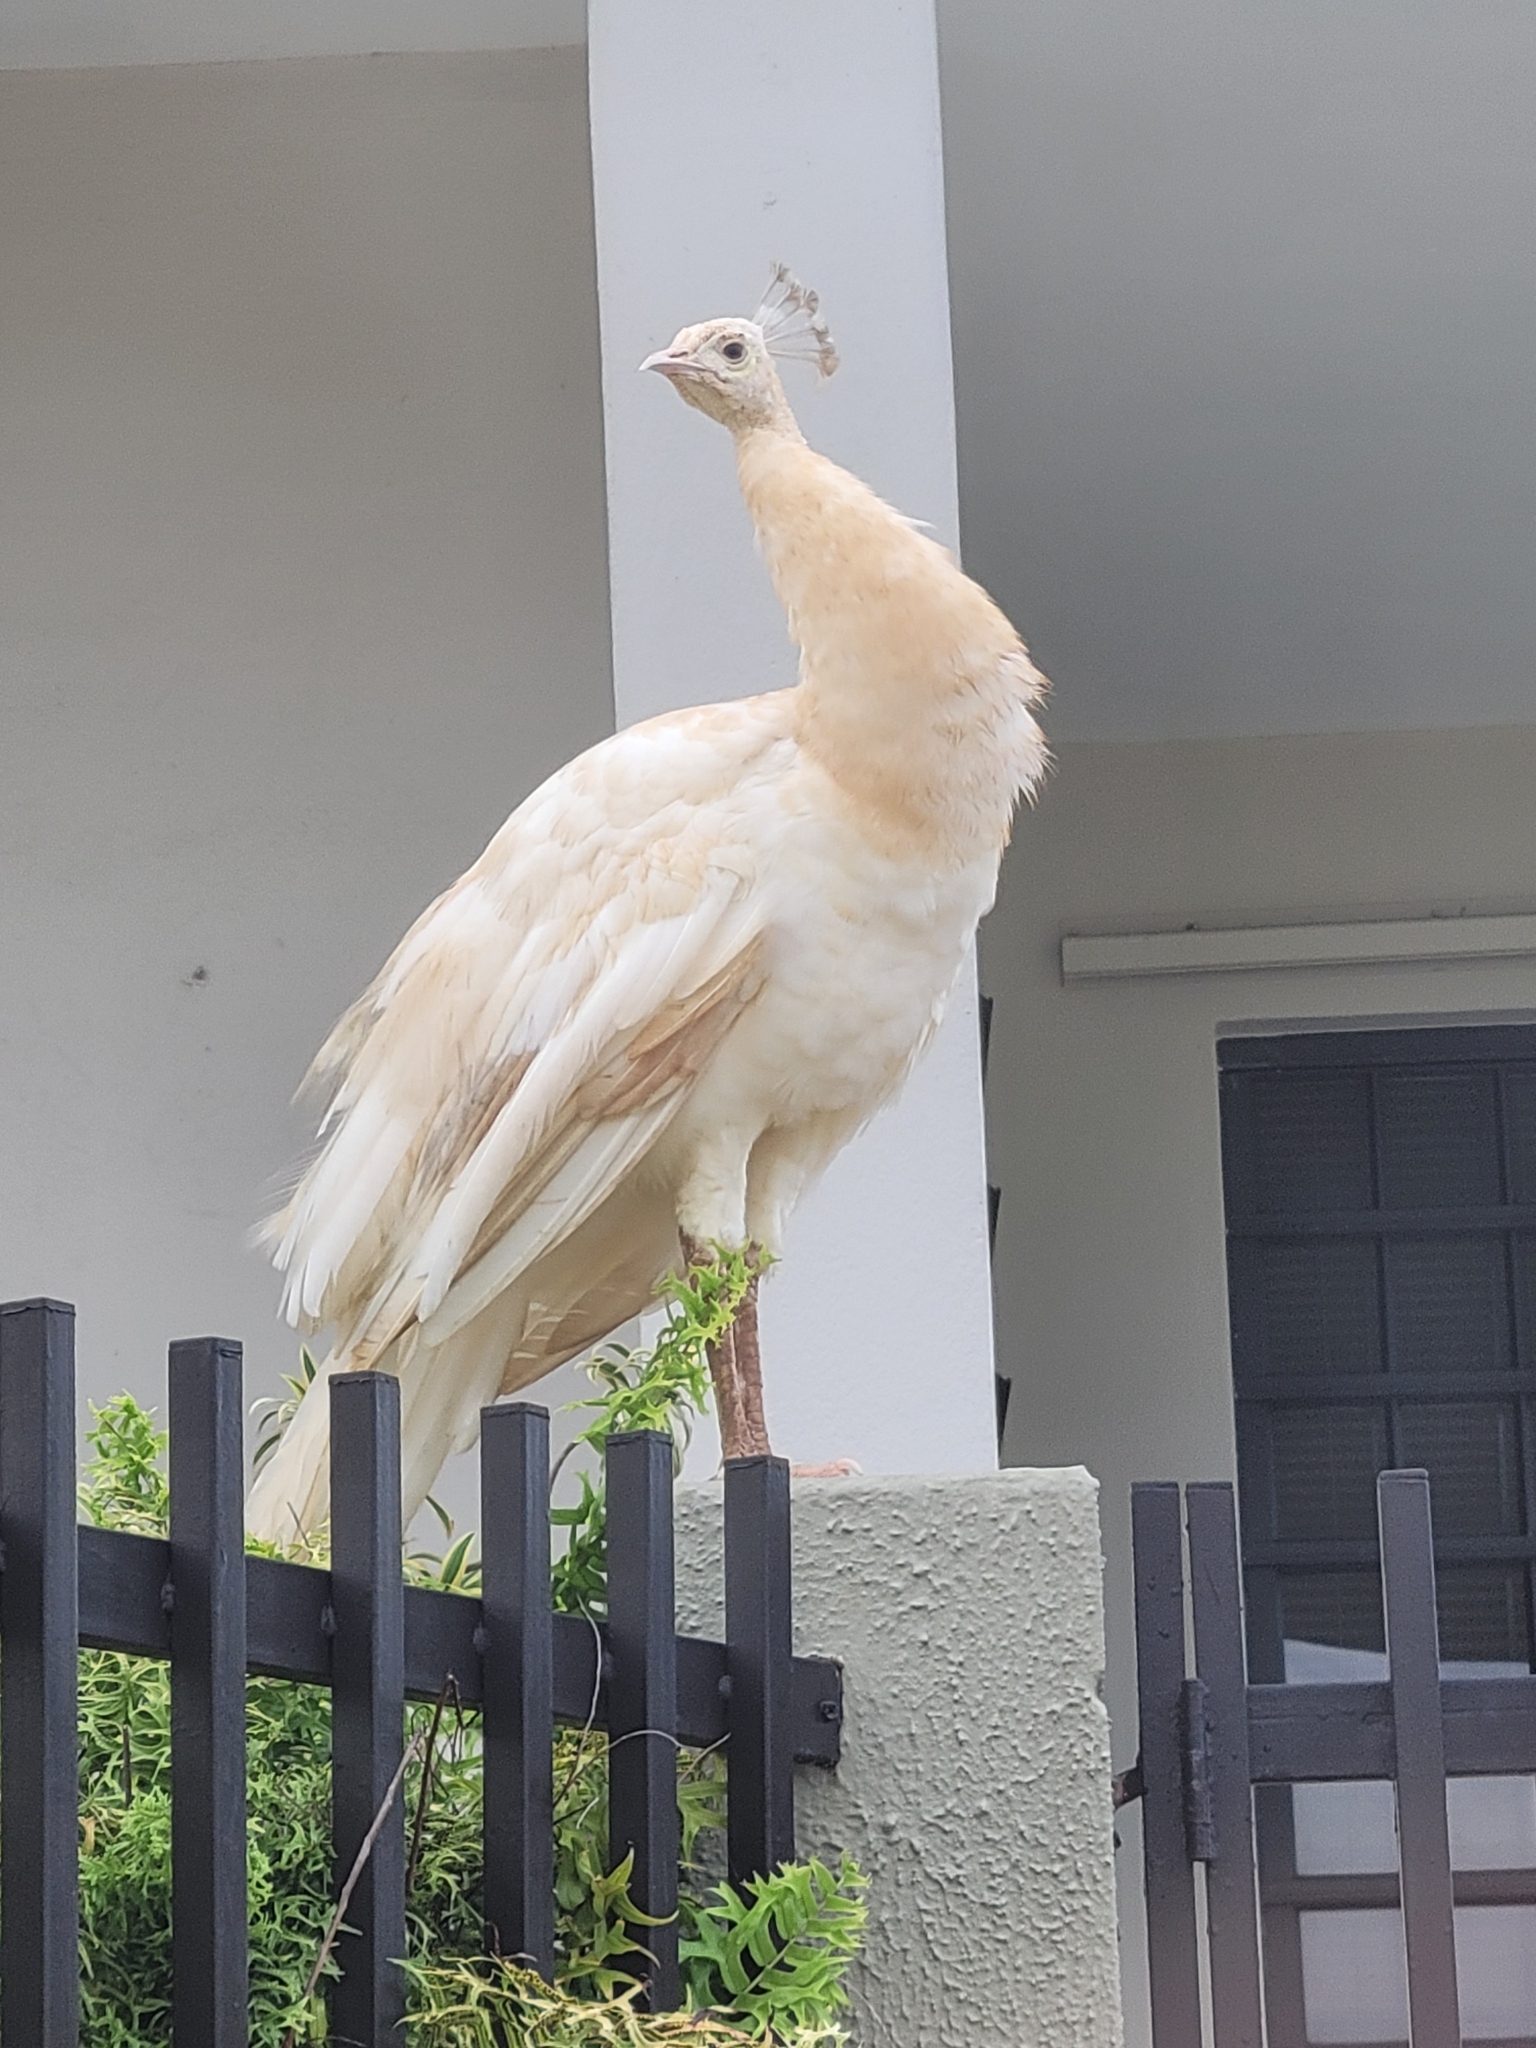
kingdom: Animalia
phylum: Chordata
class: Aves
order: Galliformes
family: Phasianidae
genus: Pavo
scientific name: Pavo cristatus
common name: Indian peafowl
